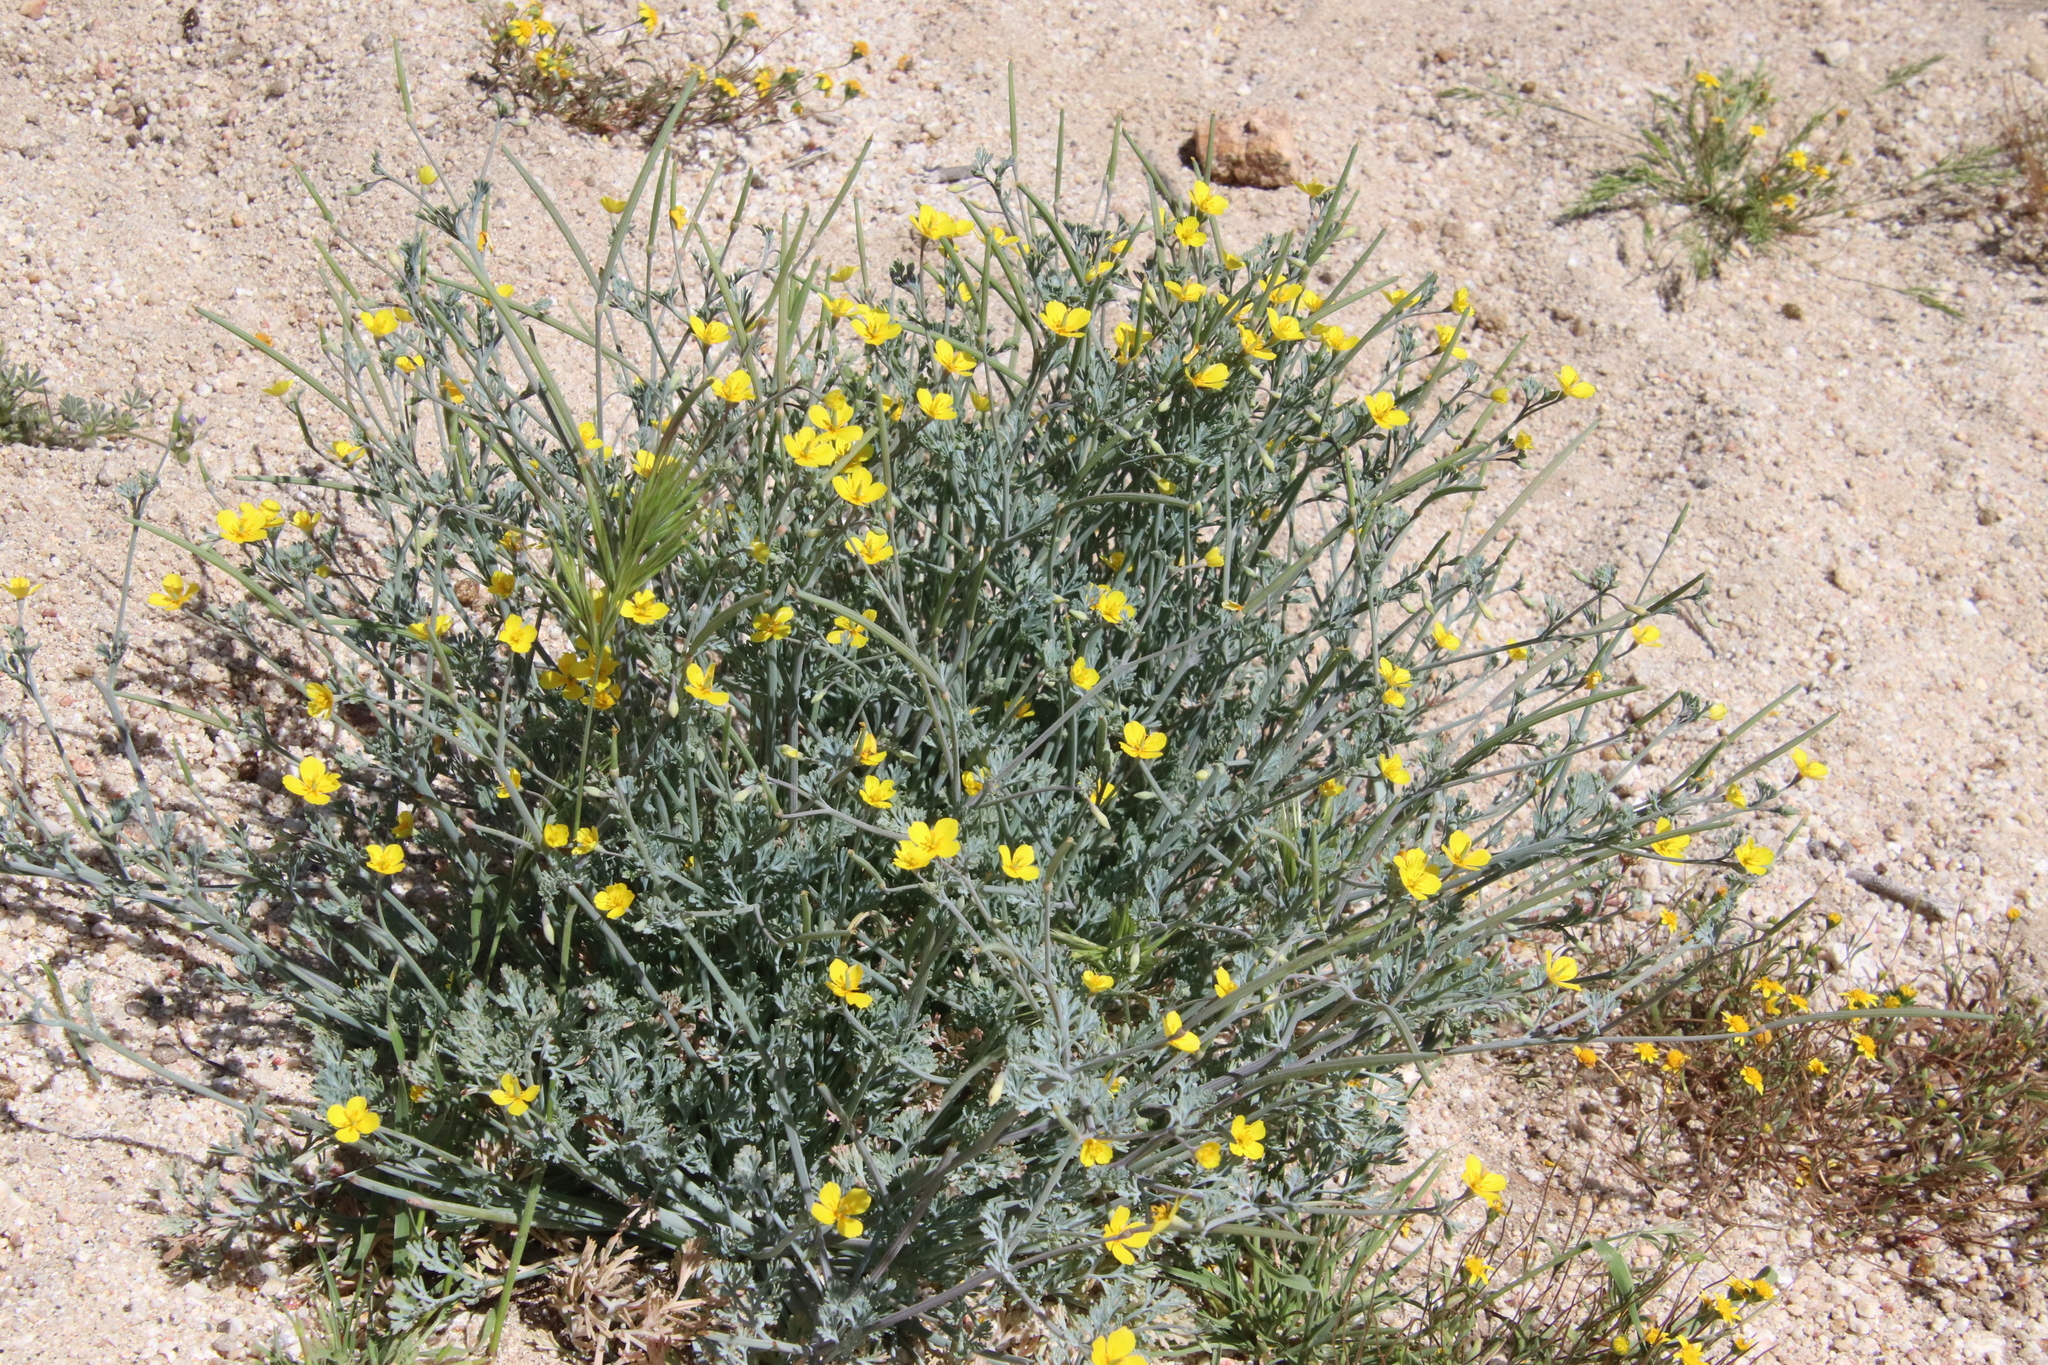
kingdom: Plantae
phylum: Tracheophyta
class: Magnoliopsida
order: Ranunculales
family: Papaveraceae
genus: Eschscholzia
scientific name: Eschscholzia minutiflora
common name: Small-flower california-poppy
